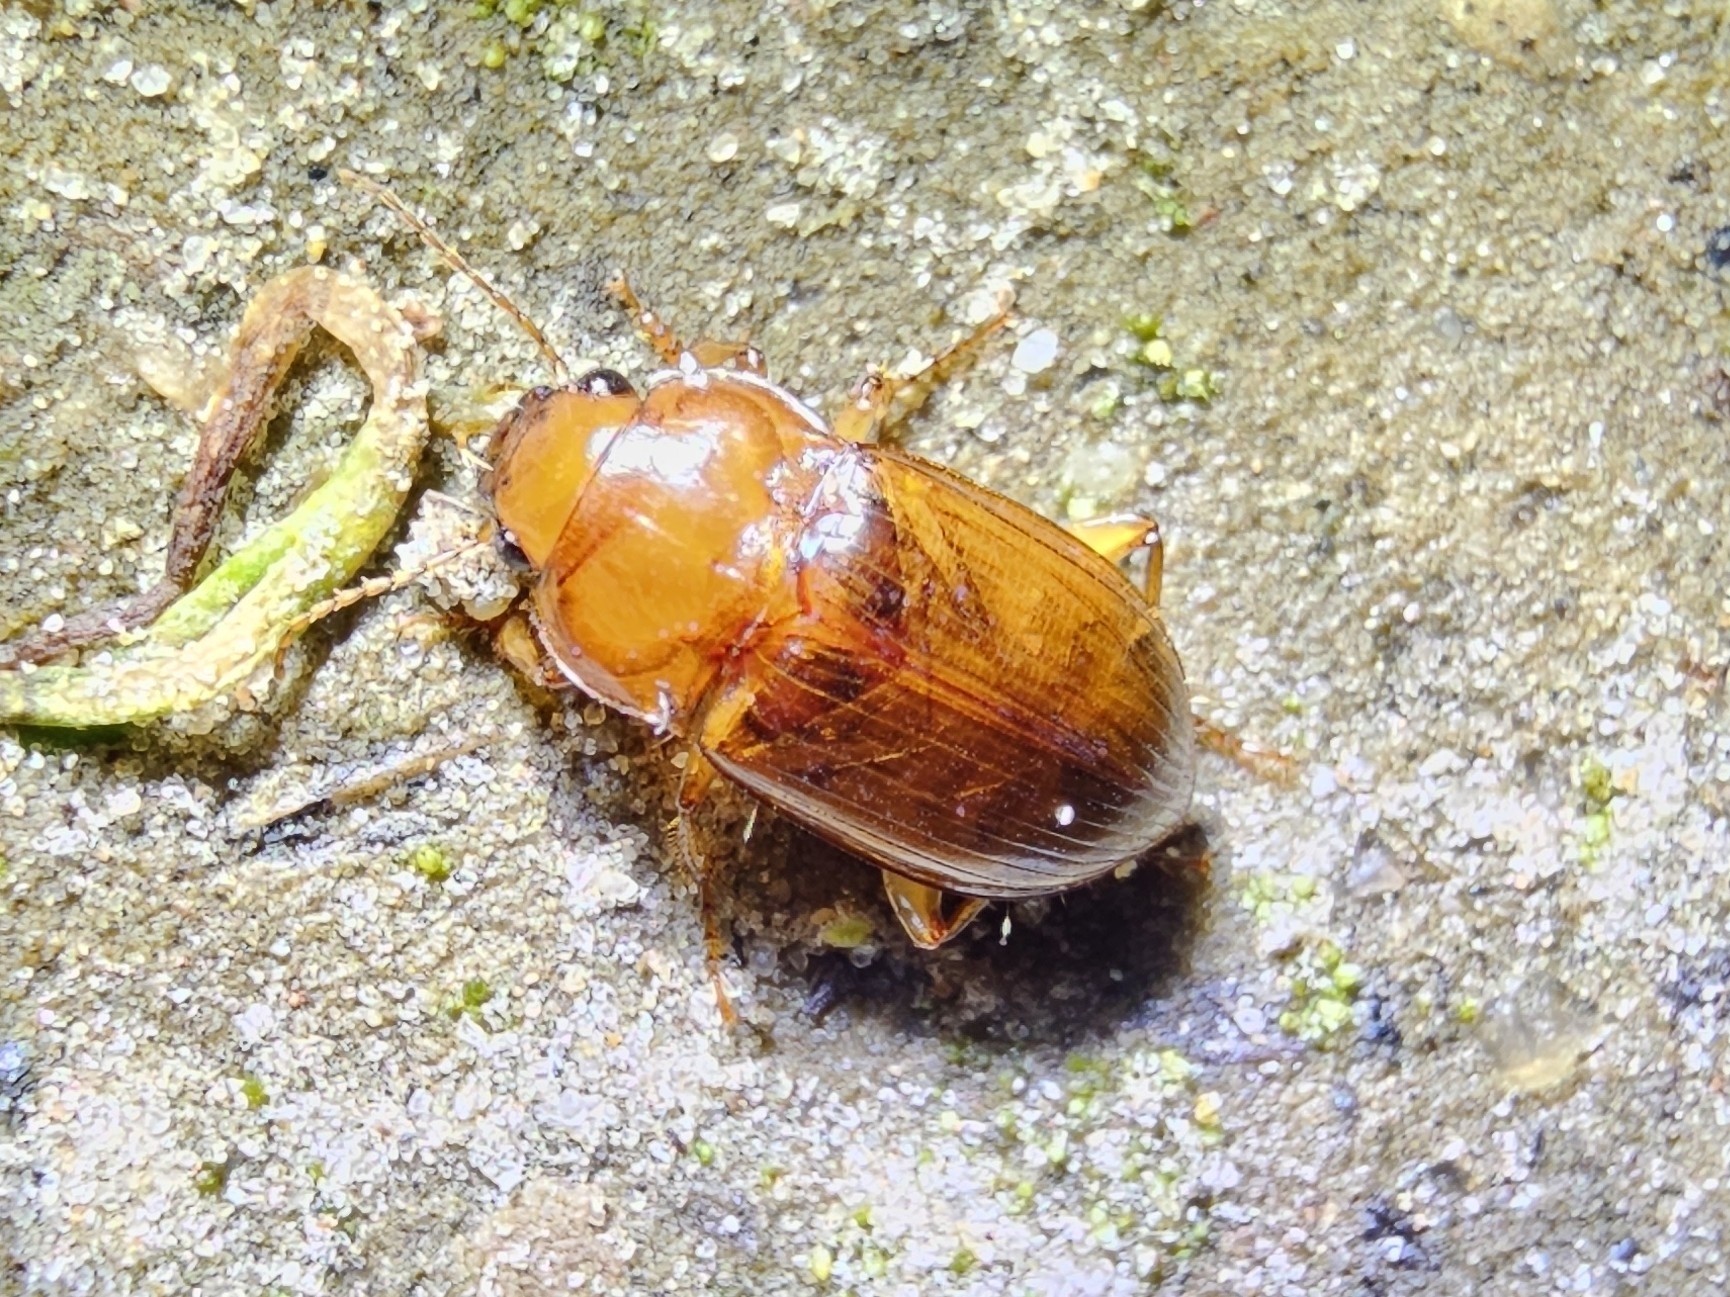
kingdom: Animalia
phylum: Arthropoda
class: Insecta
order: Coleoptera
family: Carabidae
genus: Amara
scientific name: Amara fulva
